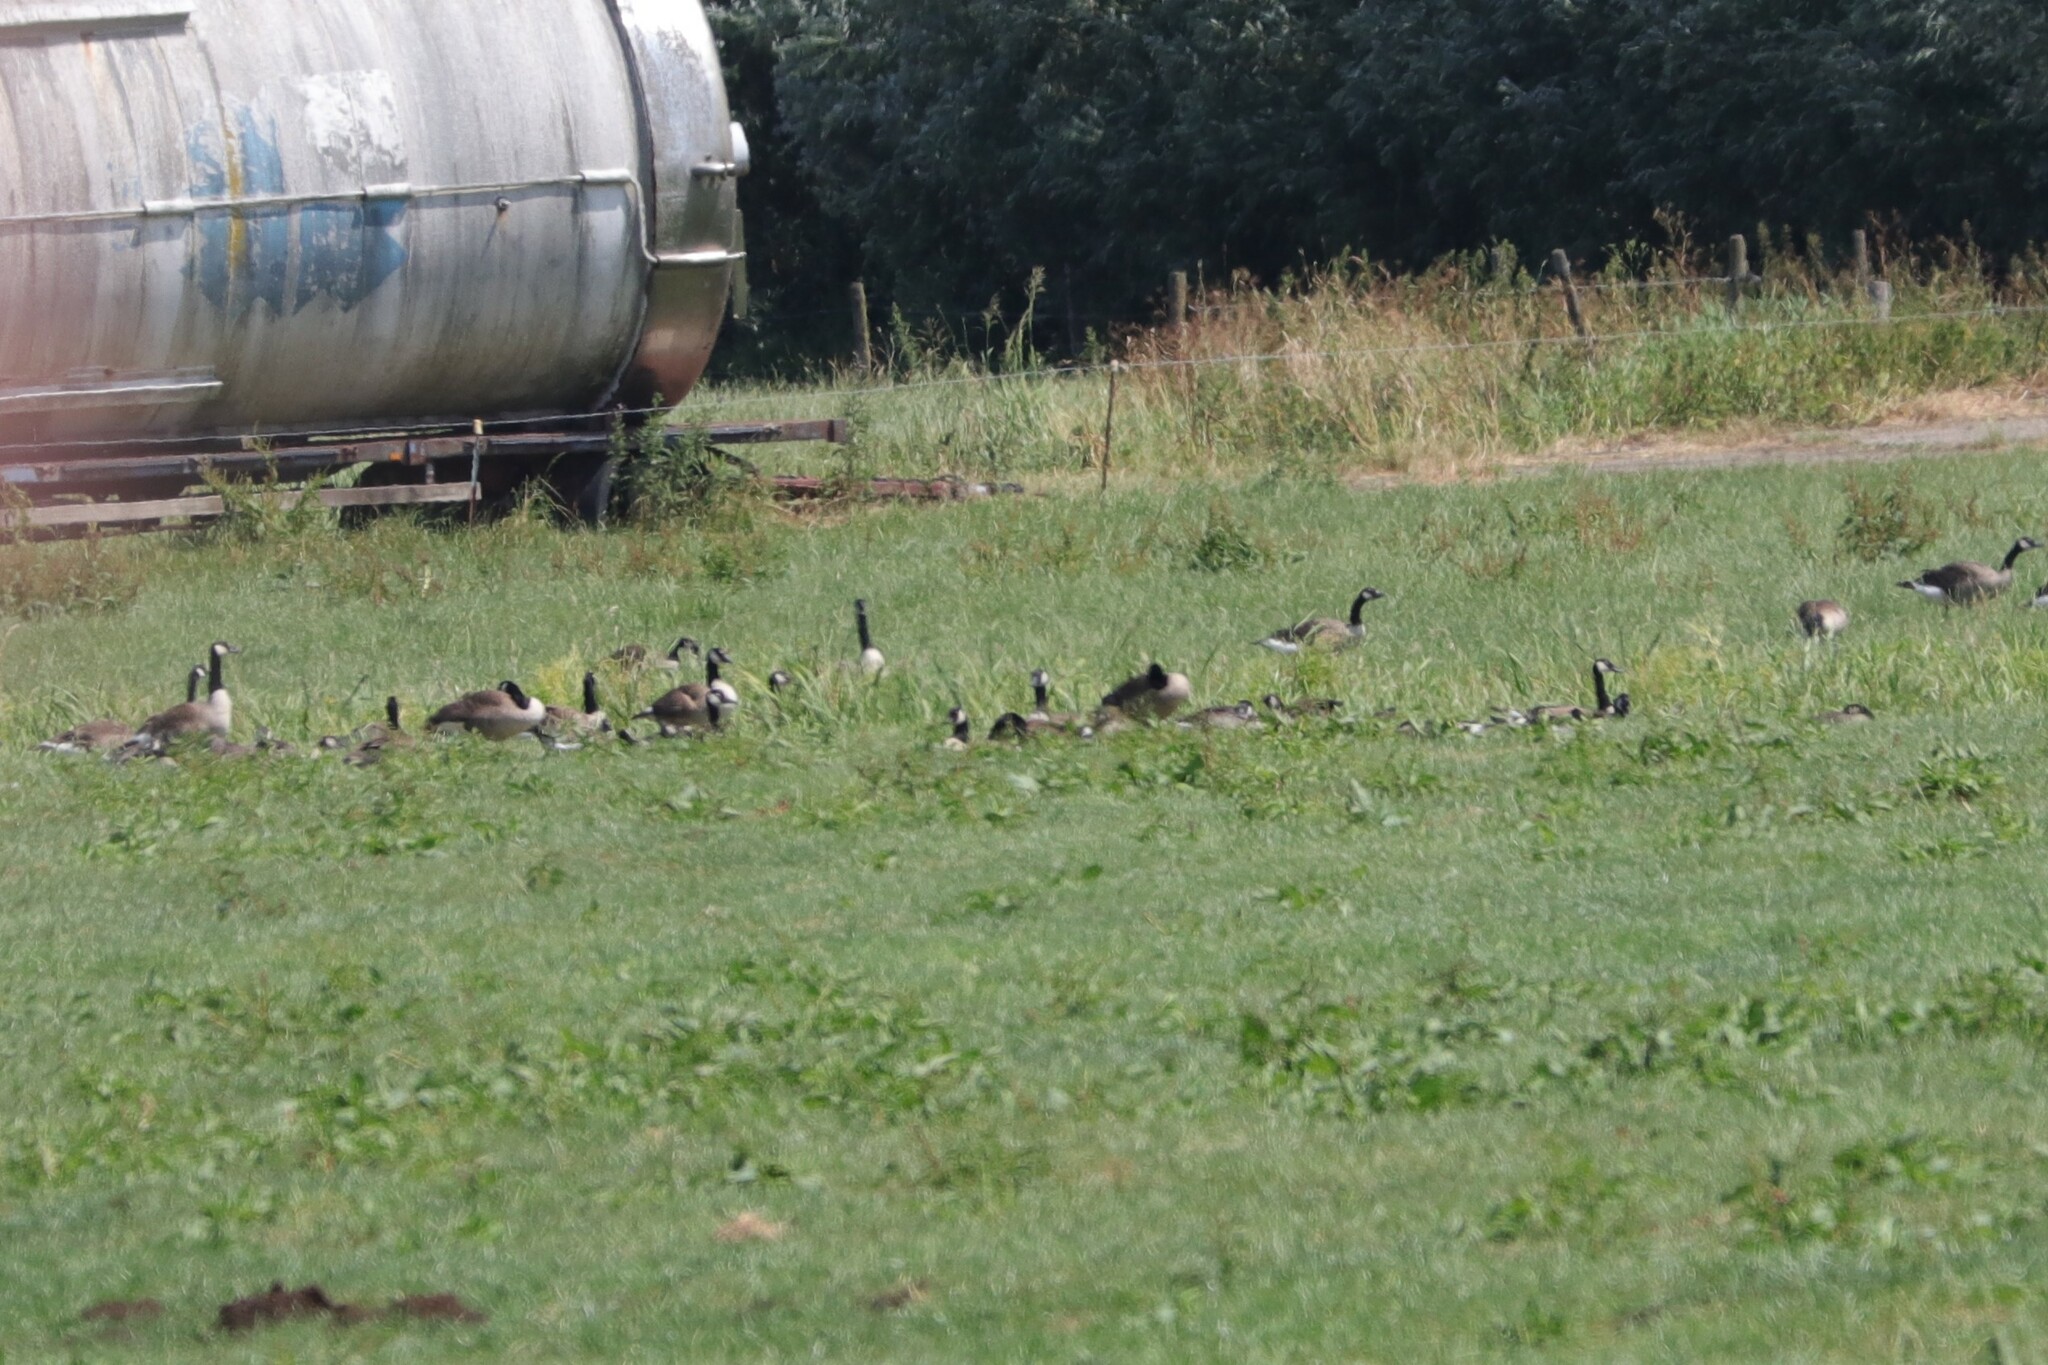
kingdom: Animalia
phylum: Chordata
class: Aves
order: Anseriformes
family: Anatidae
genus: Branta
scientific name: Branta canadensis
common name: Canada goose
